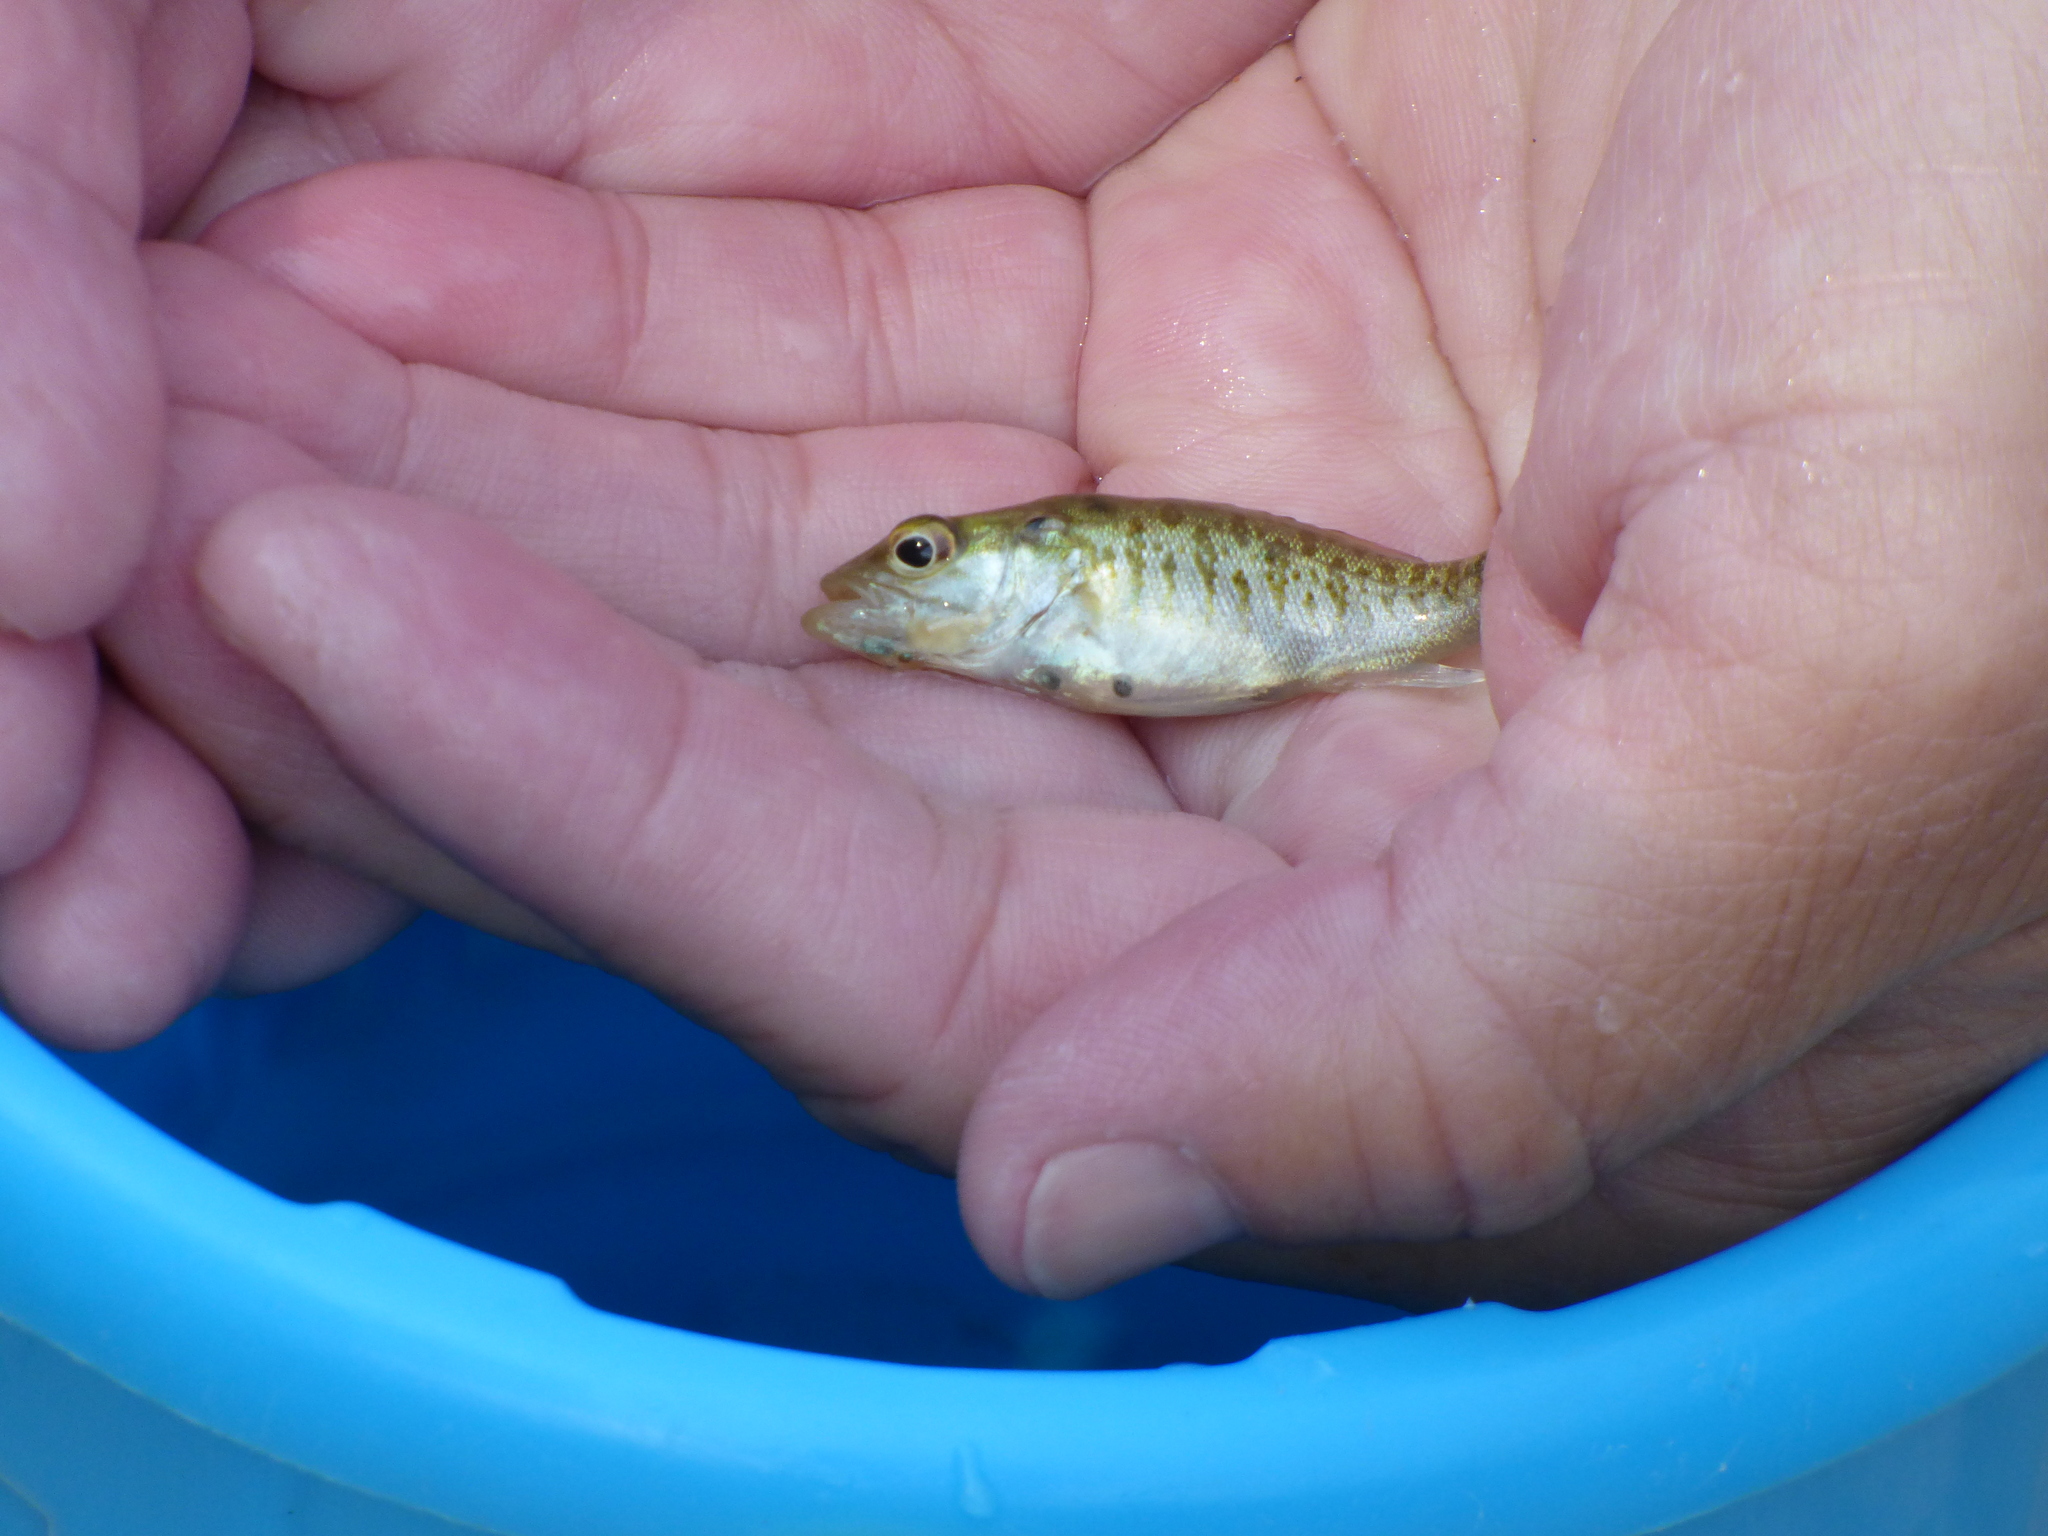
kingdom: Animalia
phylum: Chordata
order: Perciformes
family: Centrarchidae
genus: Micropterus
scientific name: Micropterus dolomieu
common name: Smallmouth bass
